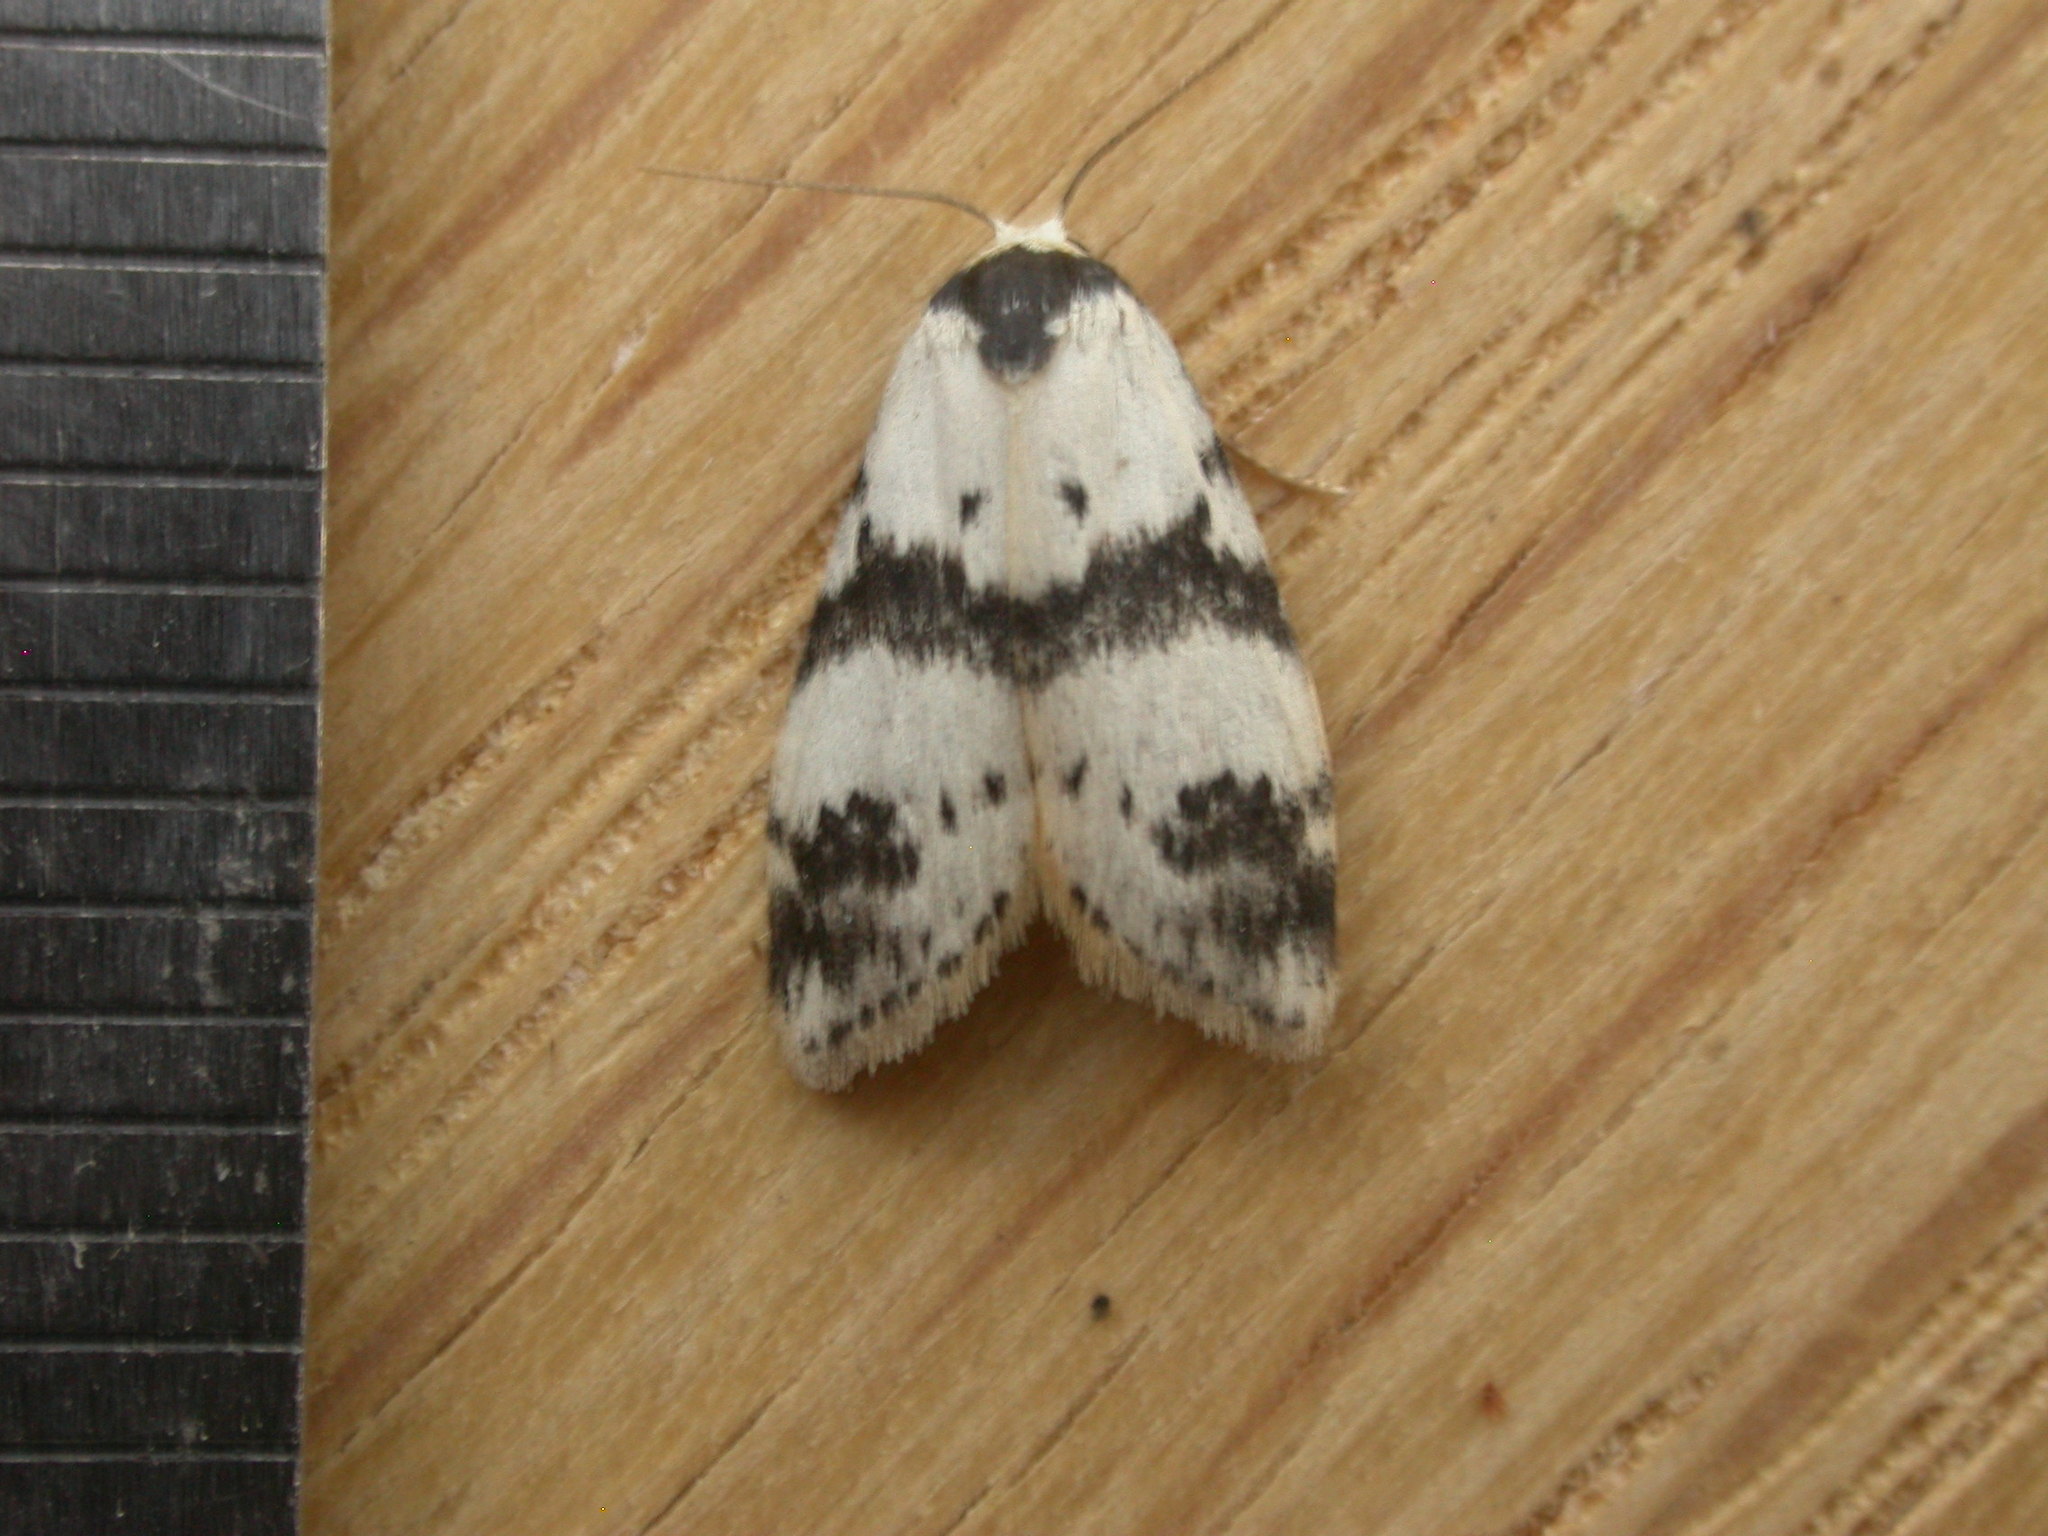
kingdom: Animalia
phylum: Arthropoda
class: Insecta
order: Lepidoptera
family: Erebidae
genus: Thallarcha
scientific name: Thallarcha sparsana
